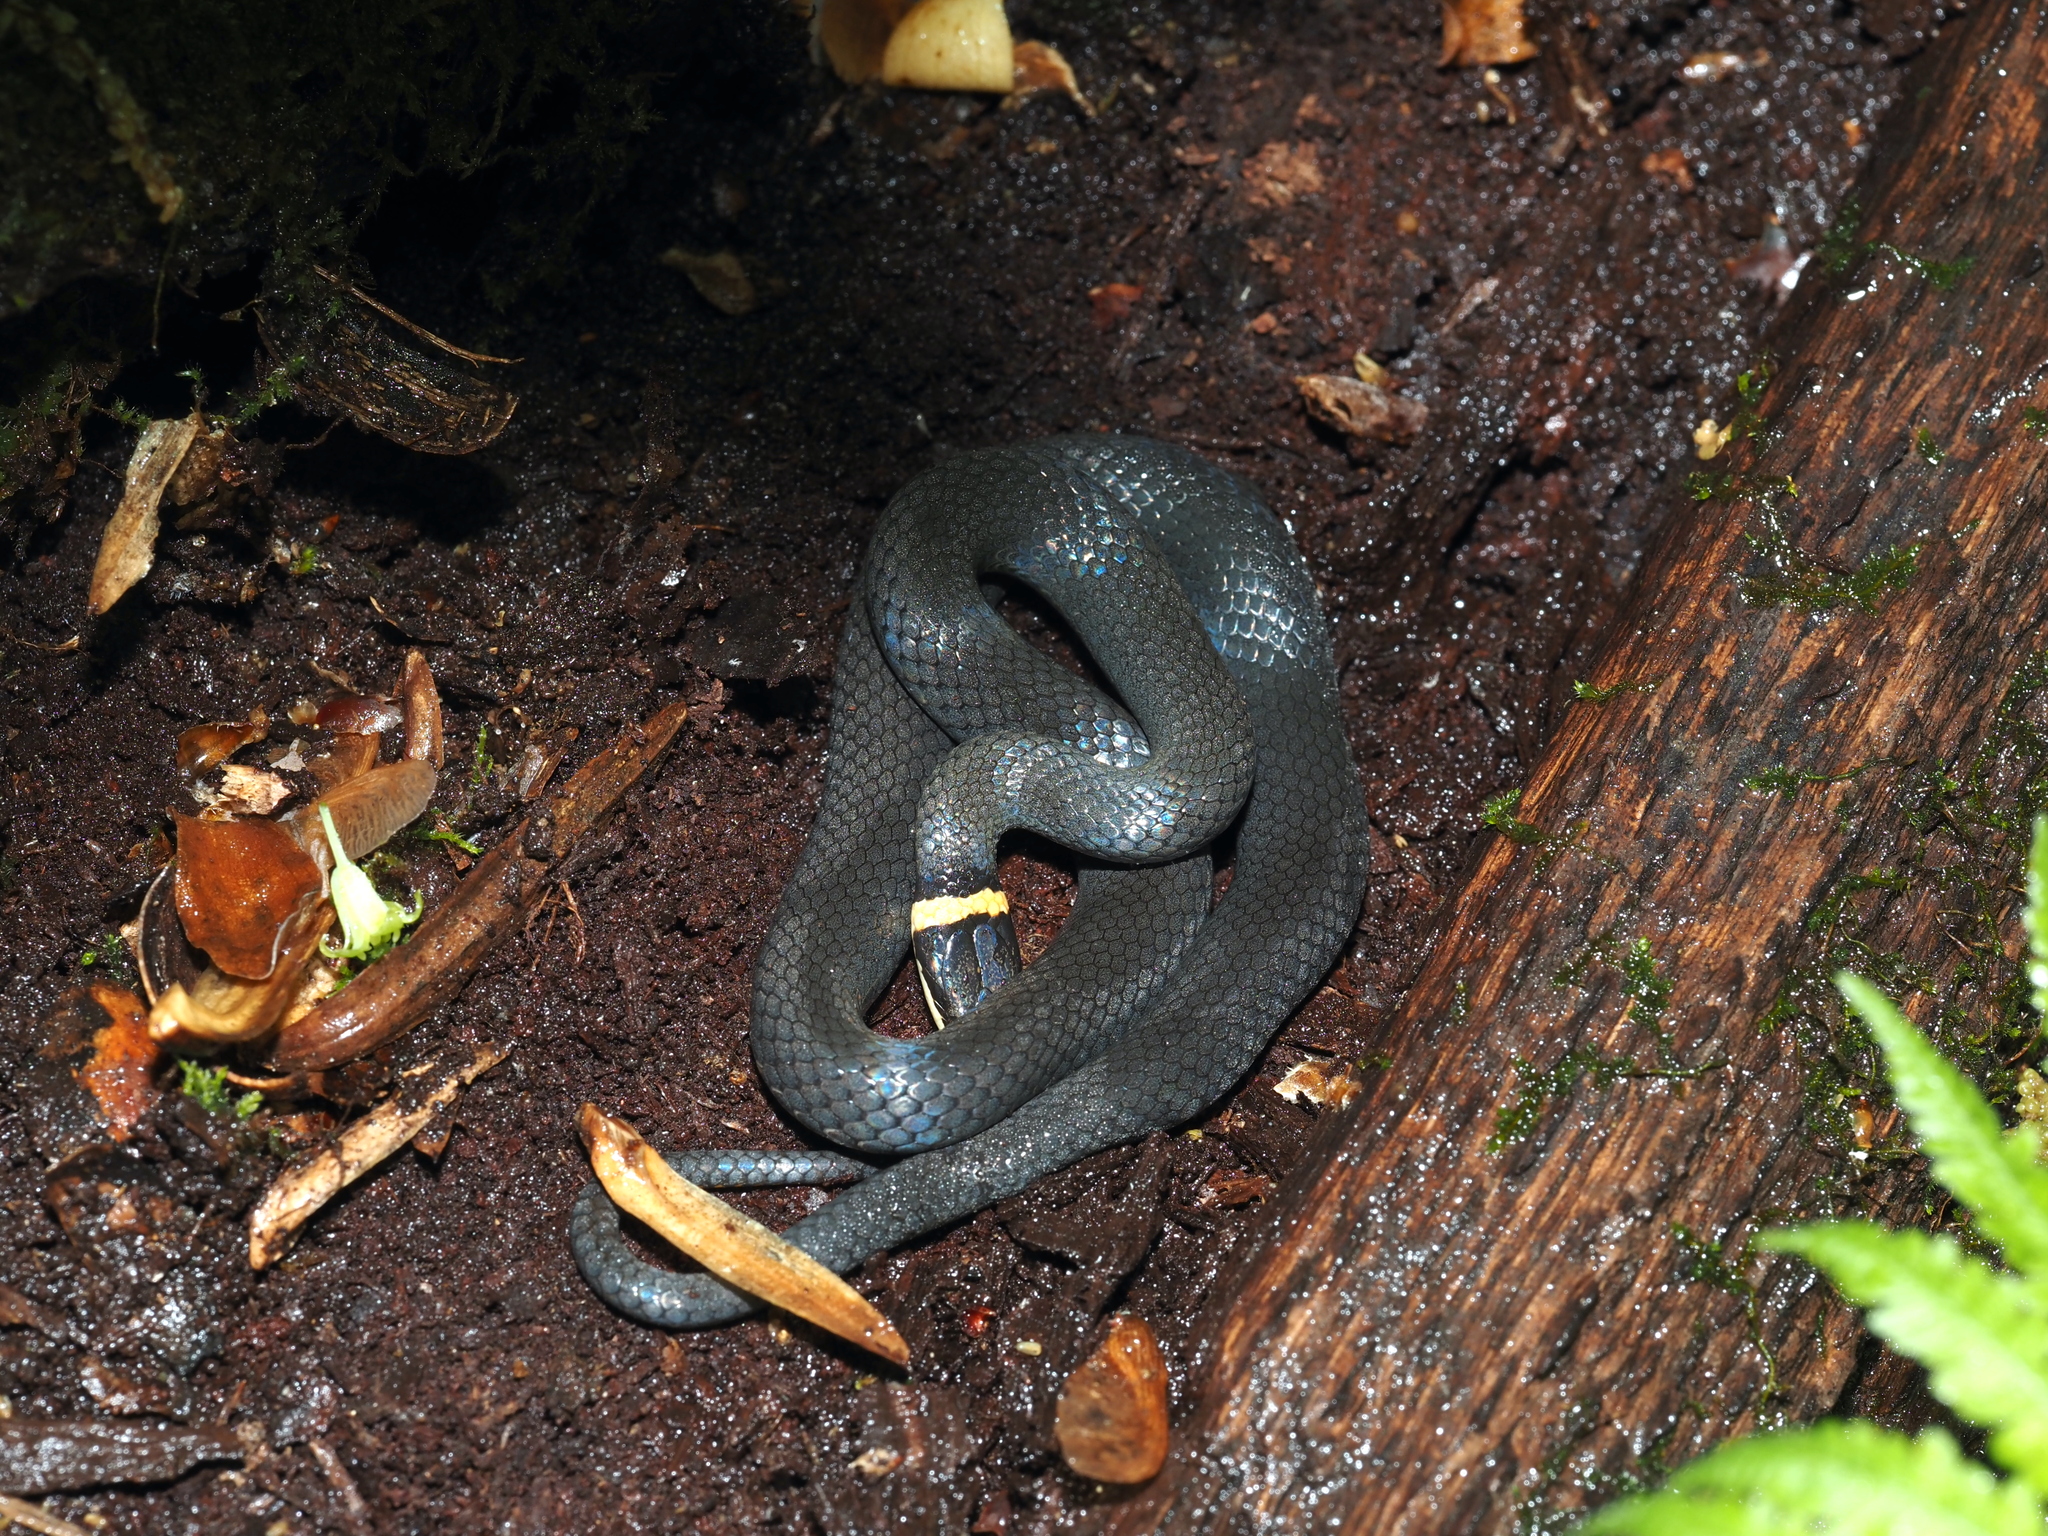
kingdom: Animalia
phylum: Chordata
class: Squamata
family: Colubridae
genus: Diadophis
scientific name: Diadophis punctatus
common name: Ringneck snake
